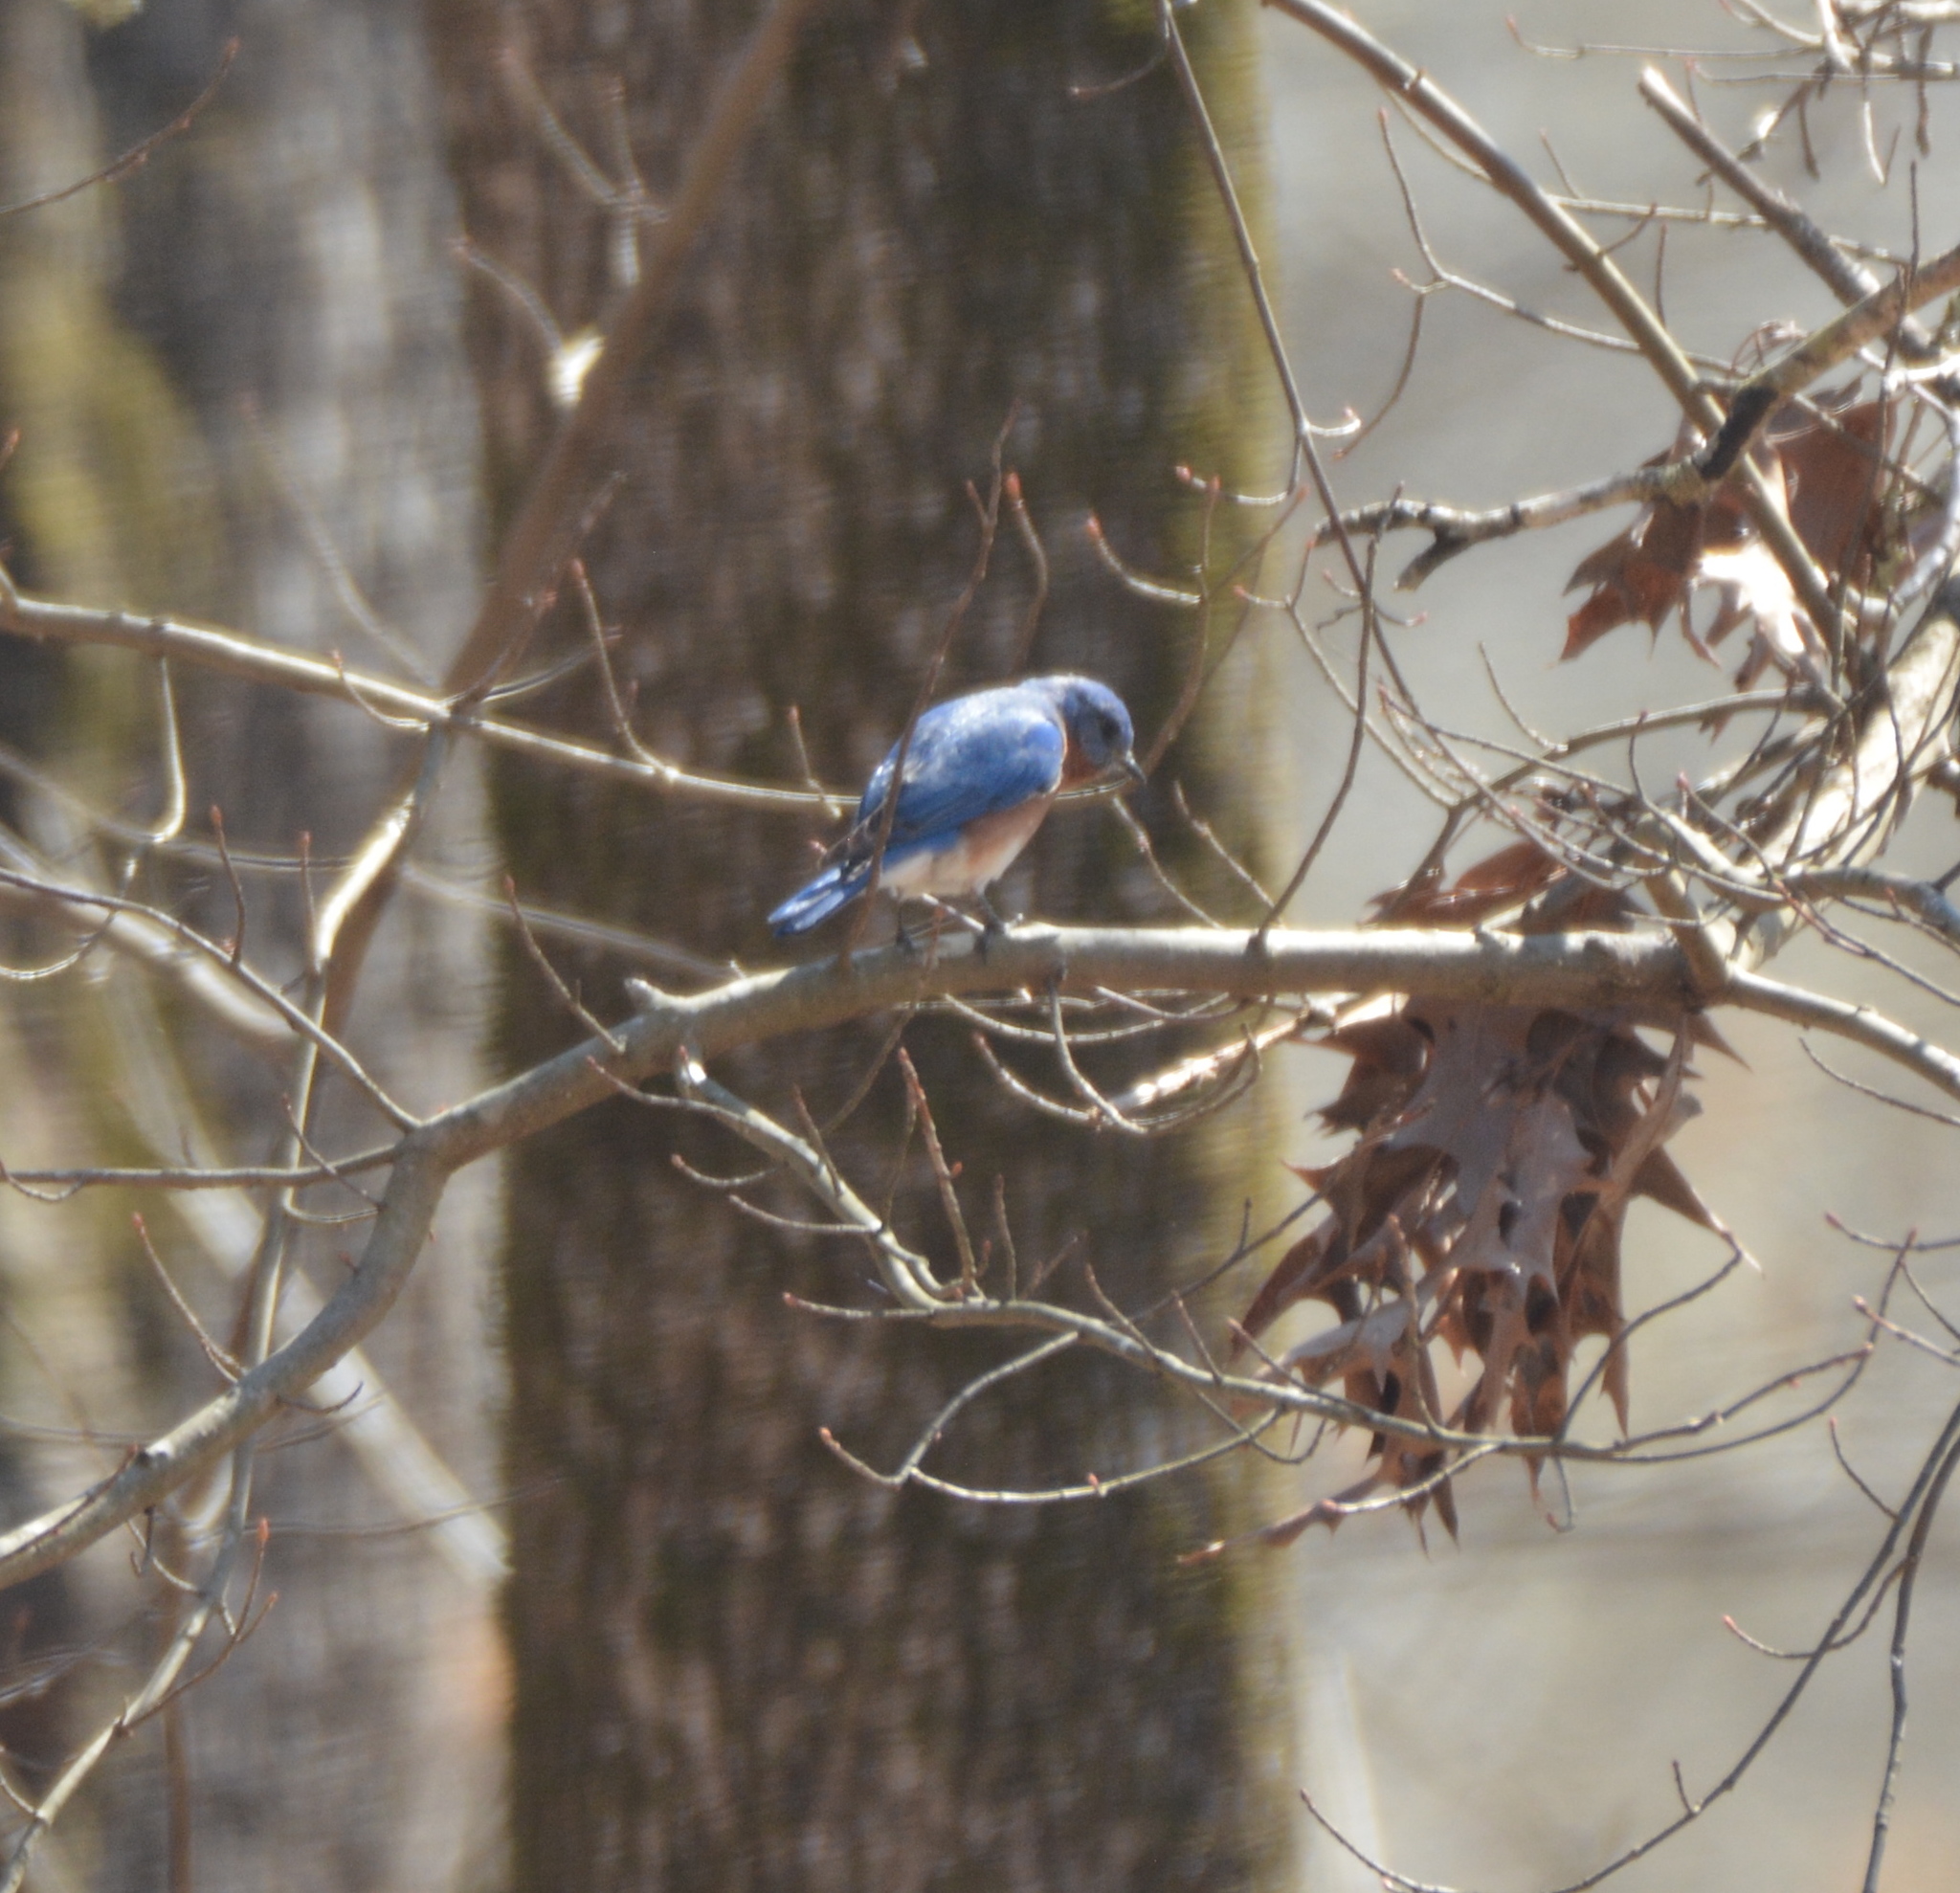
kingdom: Animalia
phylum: Chordata
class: Aves
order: Passeriformes
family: Turdidae
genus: Sialia
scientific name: Sialia sialis
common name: Eastern bluebird
